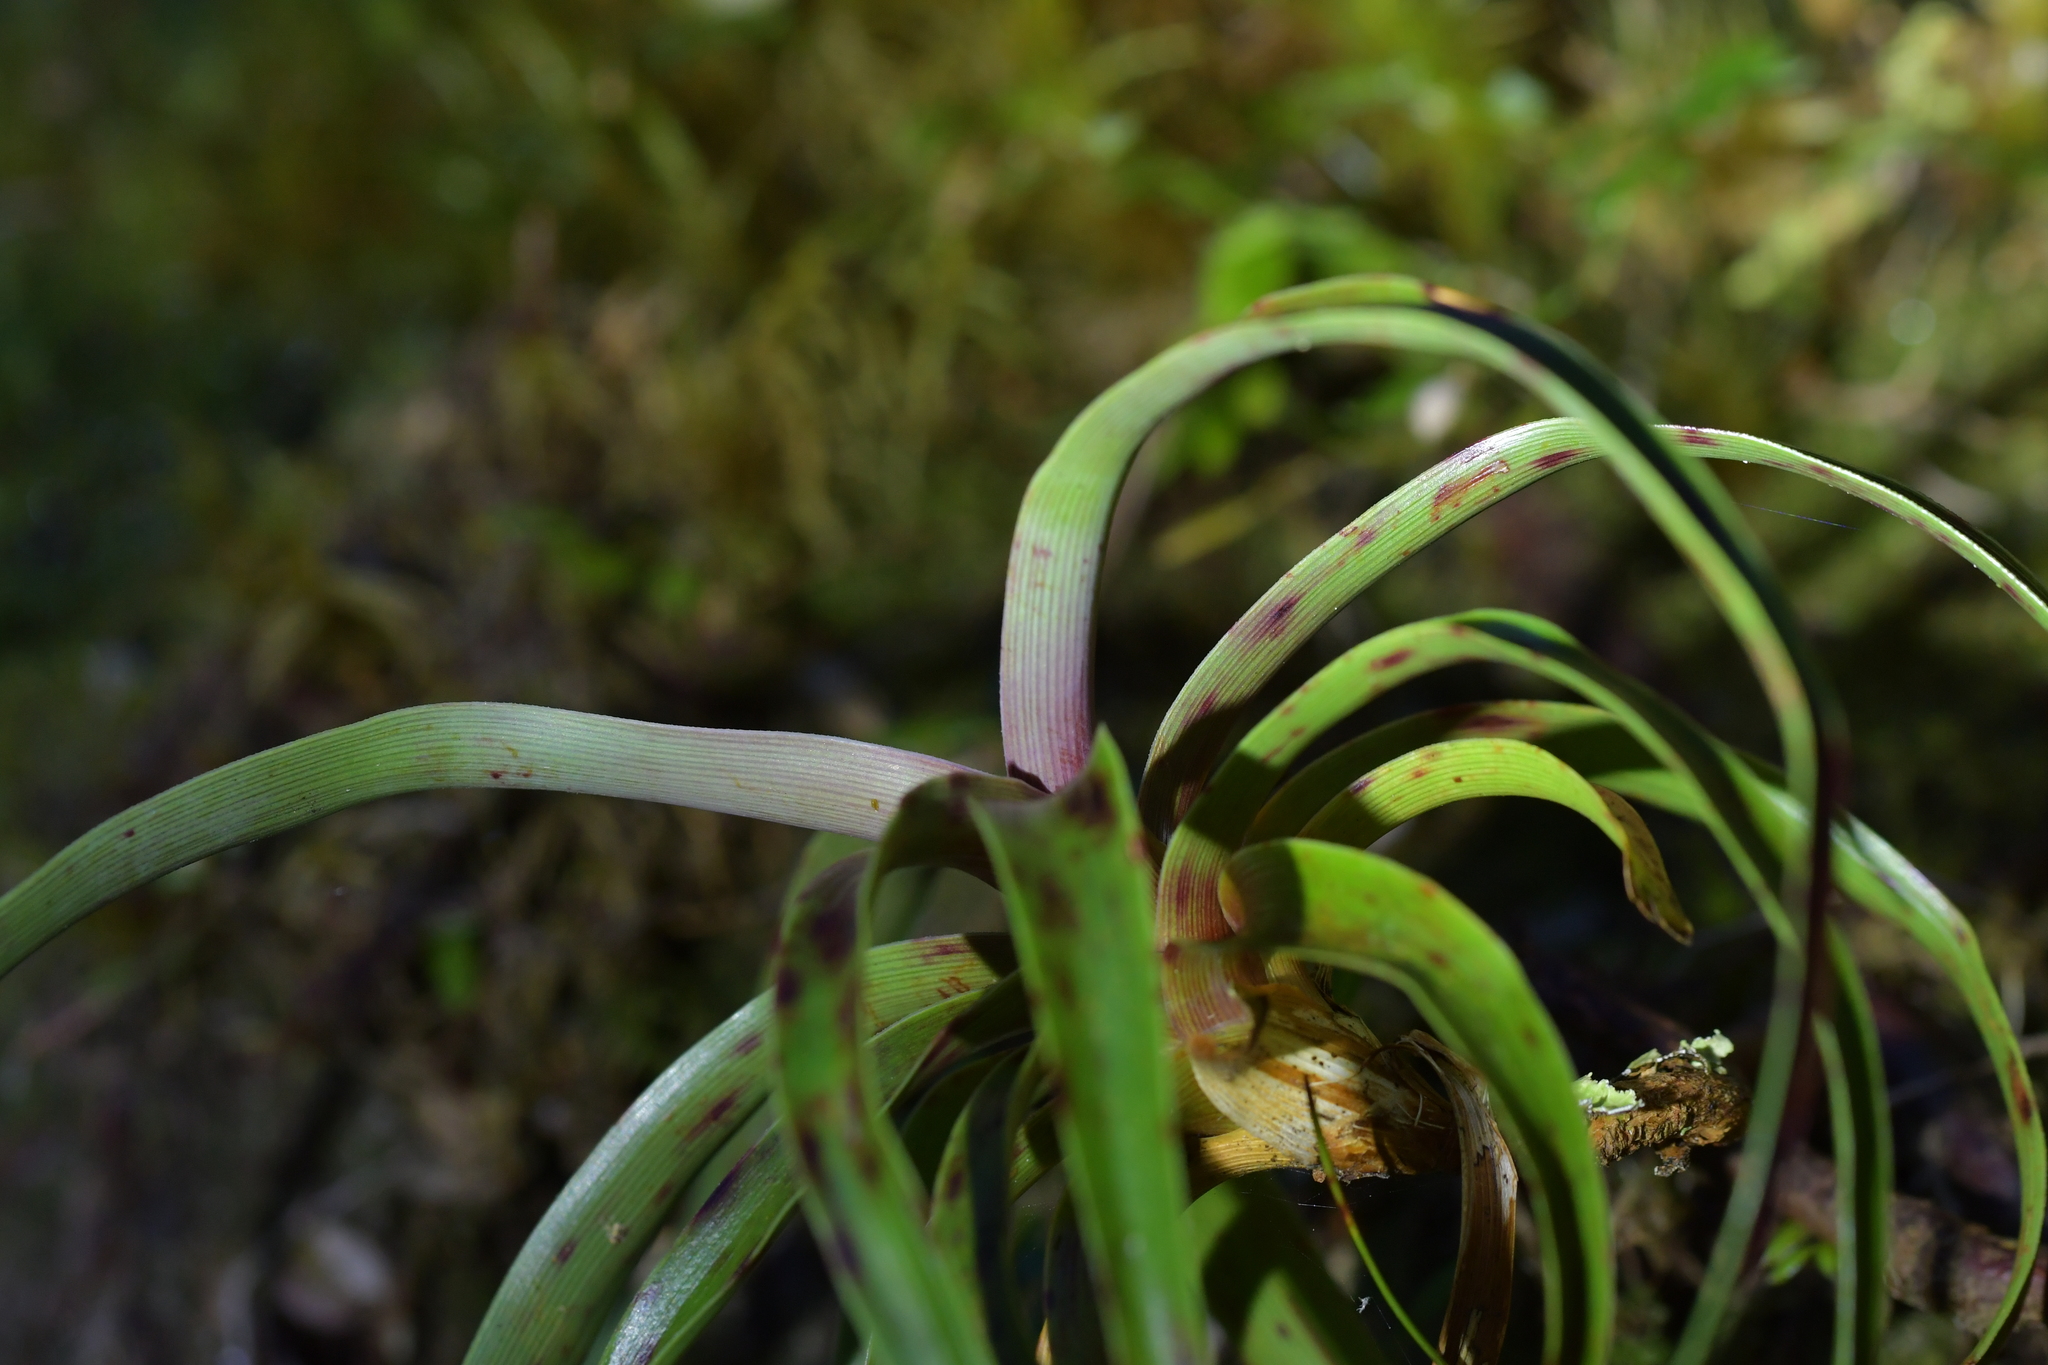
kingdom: Plantae
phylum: Tracheophyta
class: Magnoliopsida
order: Ericales
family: Ericaceae
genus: Dracophyllum
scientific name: Dracophyllum traversii
